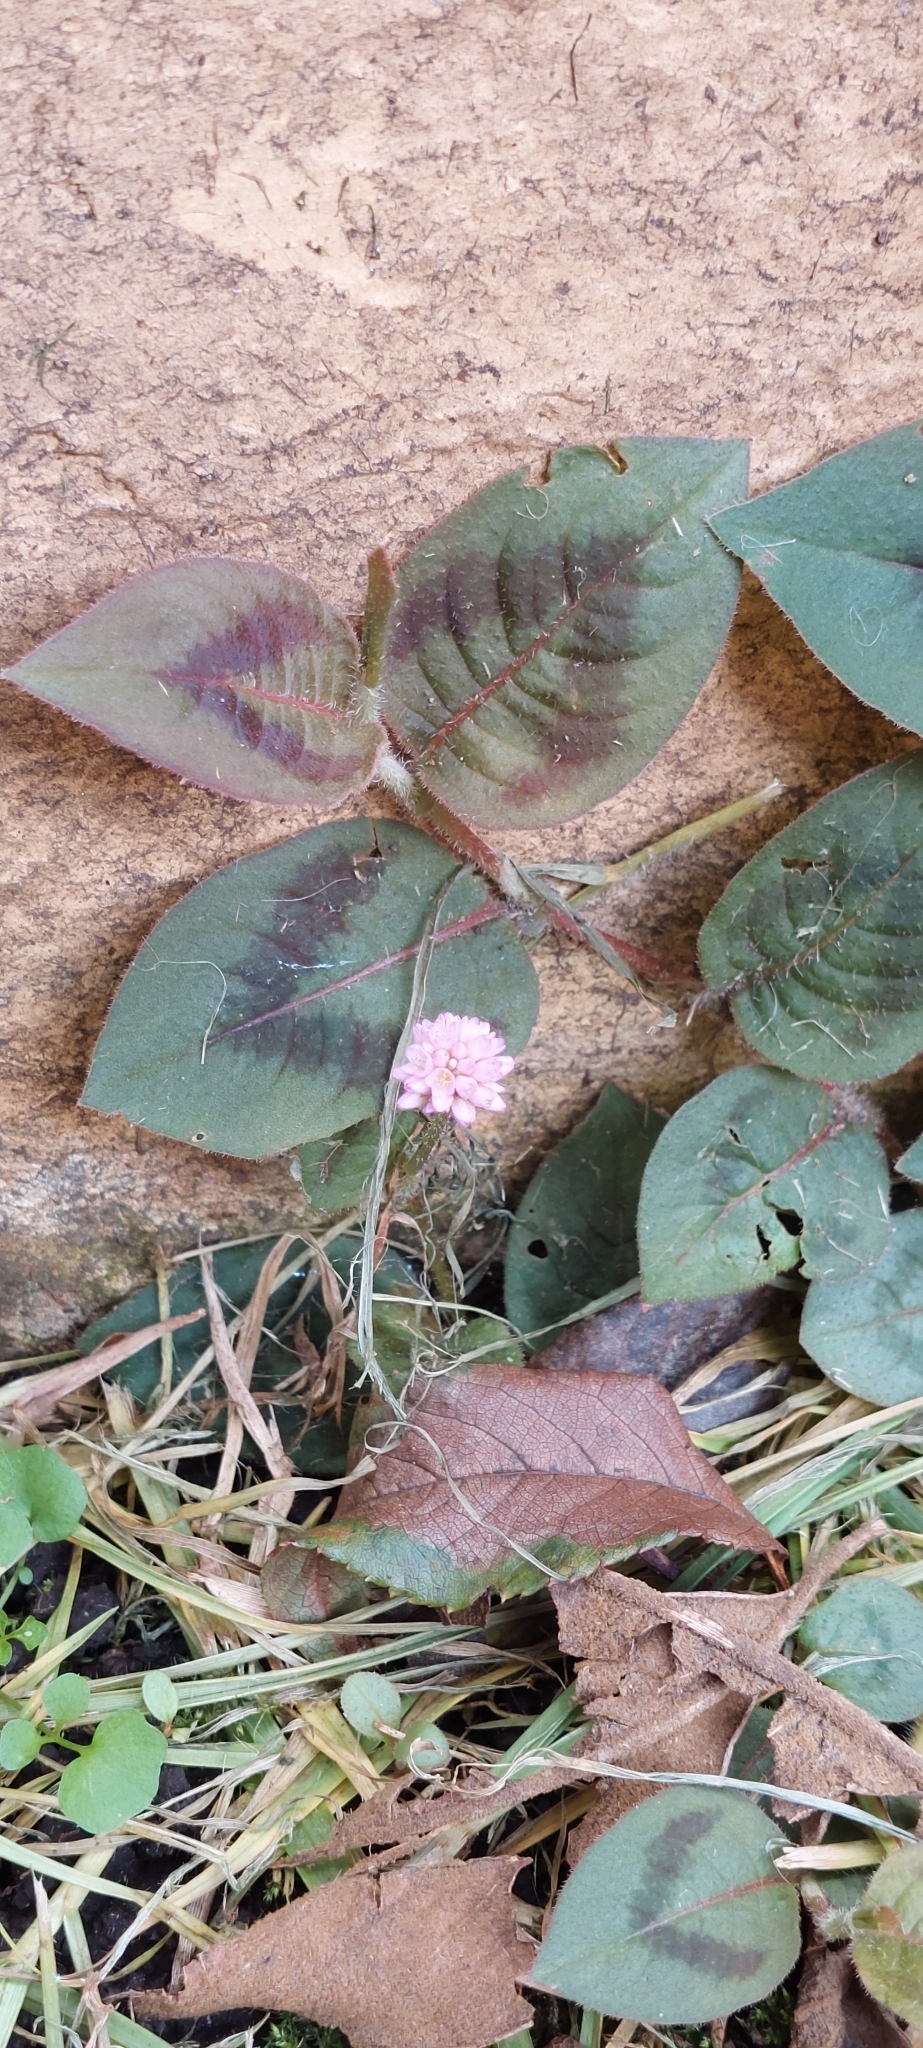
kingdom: Plantae
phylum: Tracheophyta
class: Magnoliopsida
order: Caryophyllales
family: Polygonaceae
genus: Persicaria
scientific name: Persicaria capitata
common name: Pinkhead smartweed
